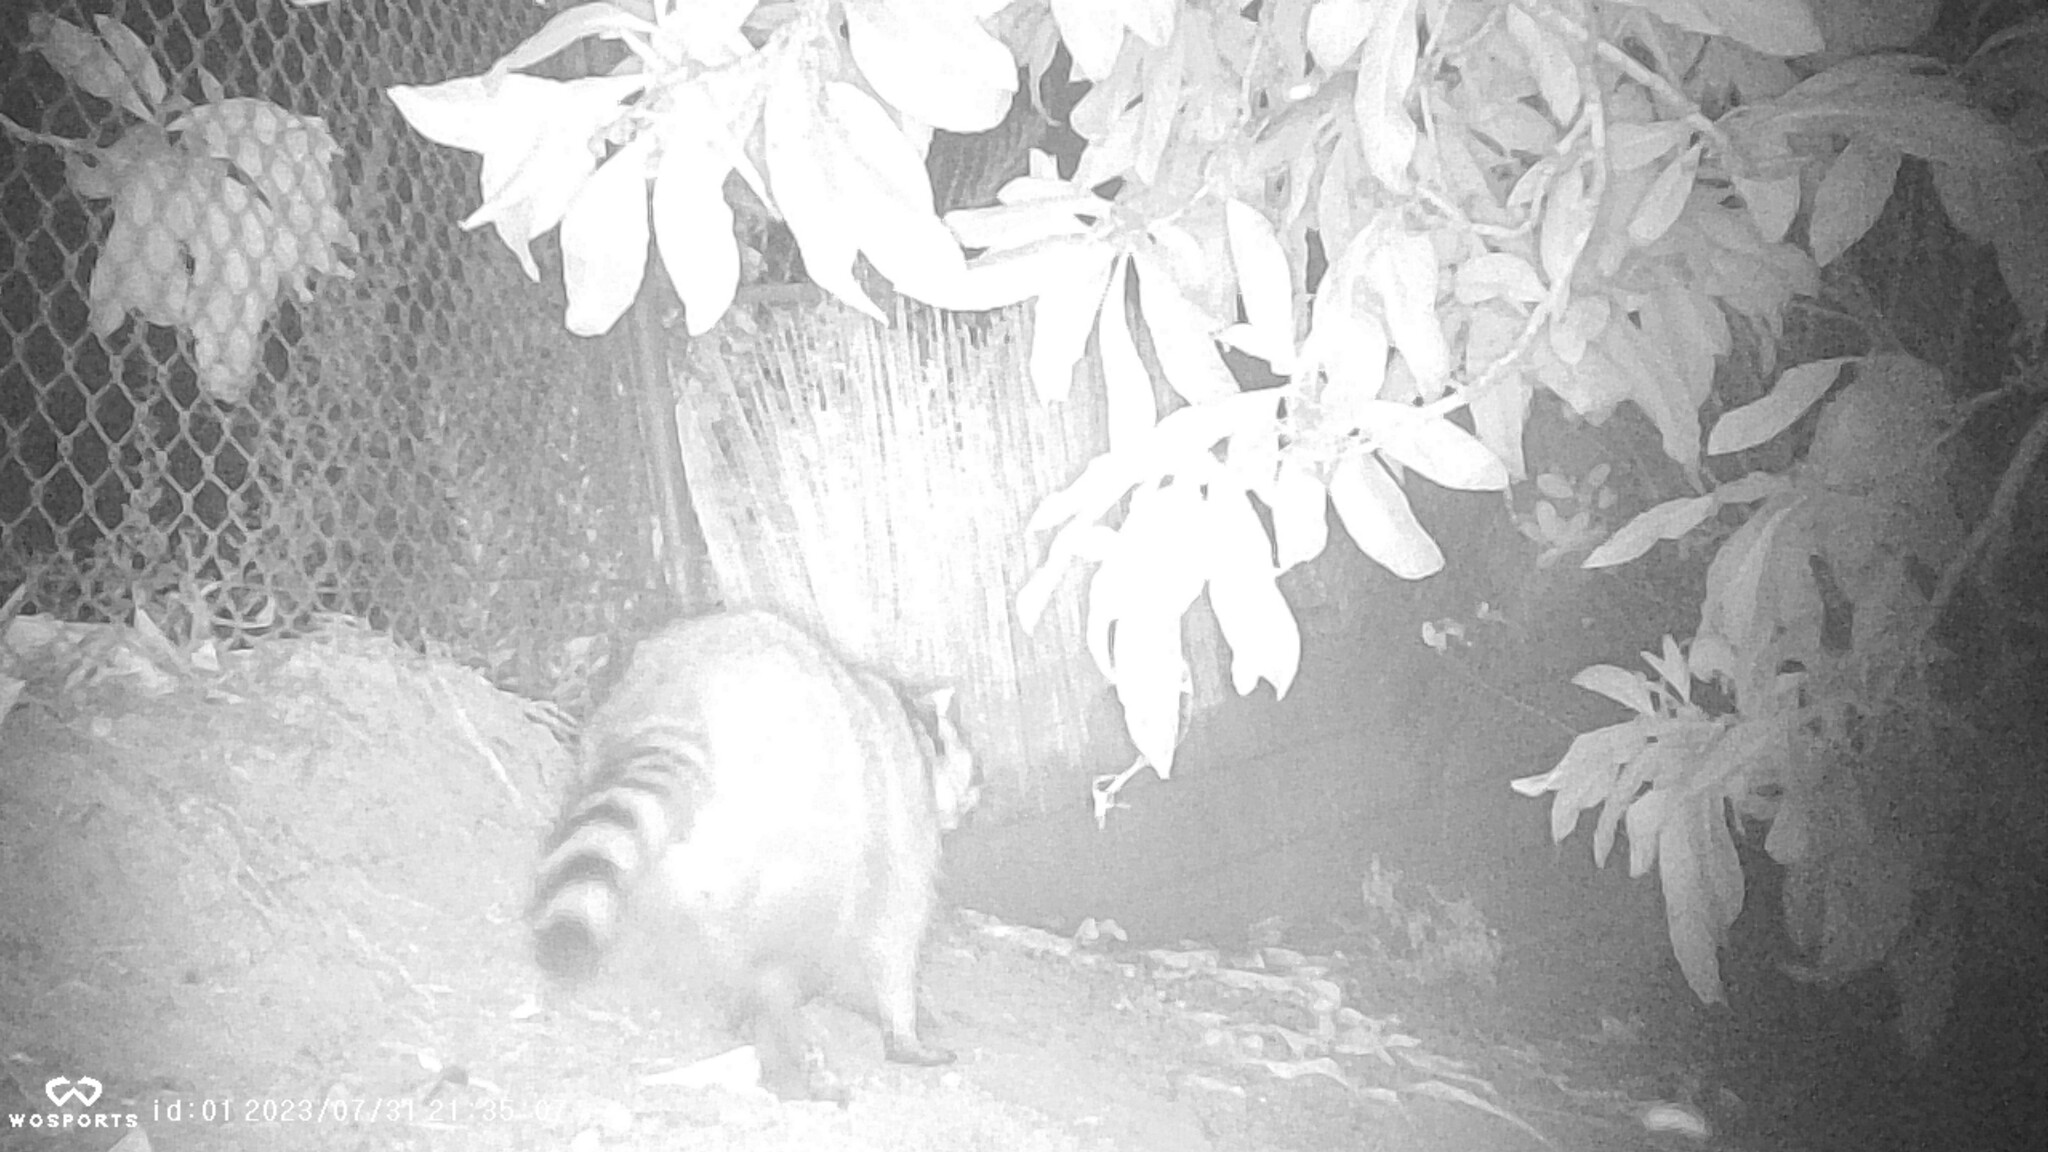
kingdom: Animalia
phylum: Chordata
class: Mammalia
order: Carnivora
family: Procyonidae
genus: Procyon
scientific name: Procyon lotor
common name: Raccoon
